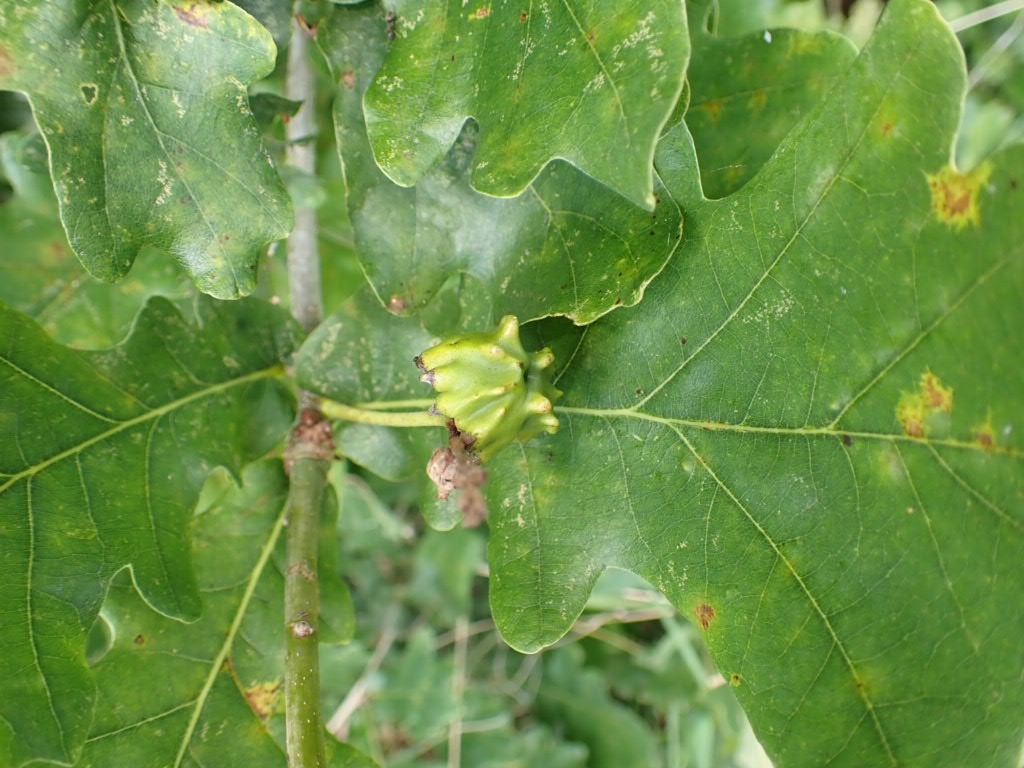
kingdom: Animalia
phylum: Arthropoda
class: Insecta
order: Hymenoptera
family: Cynipidae
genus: Andricus
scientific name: Andricus quercuscalicis
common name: Knopper gall
